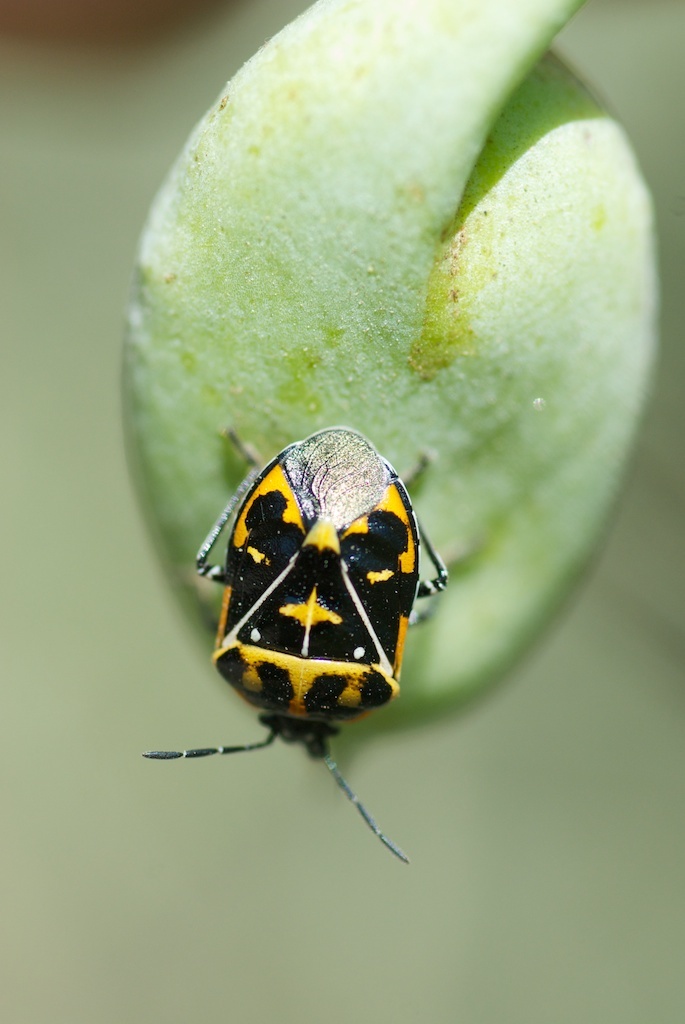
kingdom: Animalia
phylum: Arthropoda
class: Insecta
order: Hemiptera
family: Pentatomidae
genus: Murgantia
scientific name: Murgantia histrionica
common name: Harlequin bug
